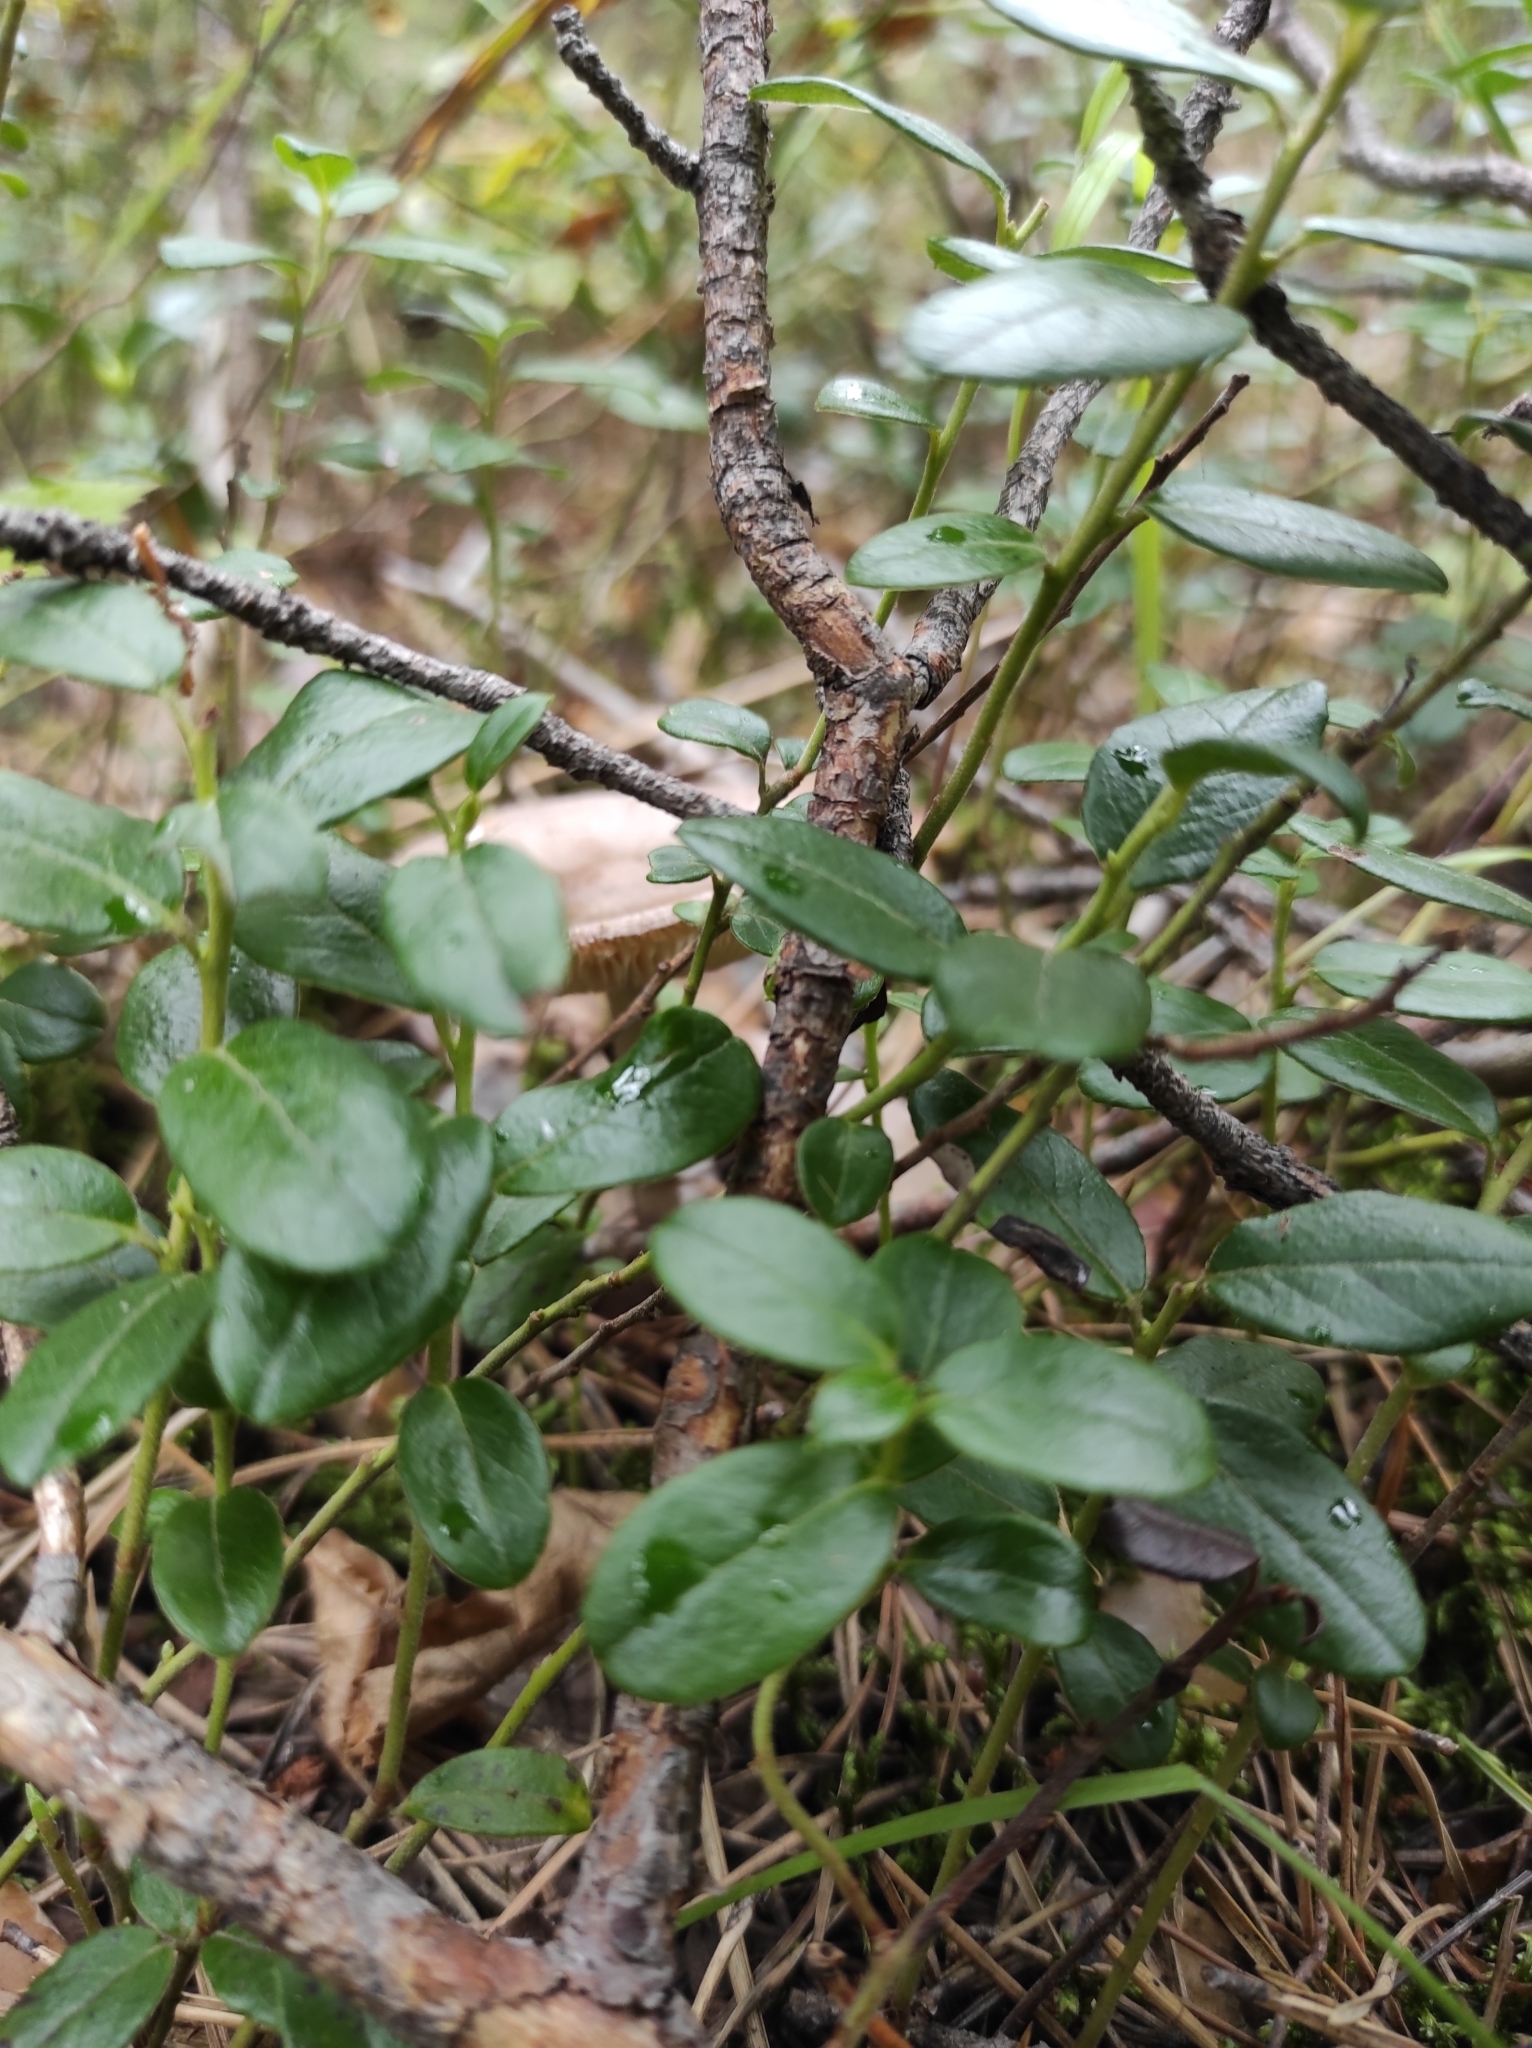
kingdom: Plantae
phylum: Tracheophyta
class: Magnoliopsida
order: Ericales
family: Ericaceae
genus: Vaccinium
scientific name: Vaccinium vitis-idaea
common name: Cowberry
